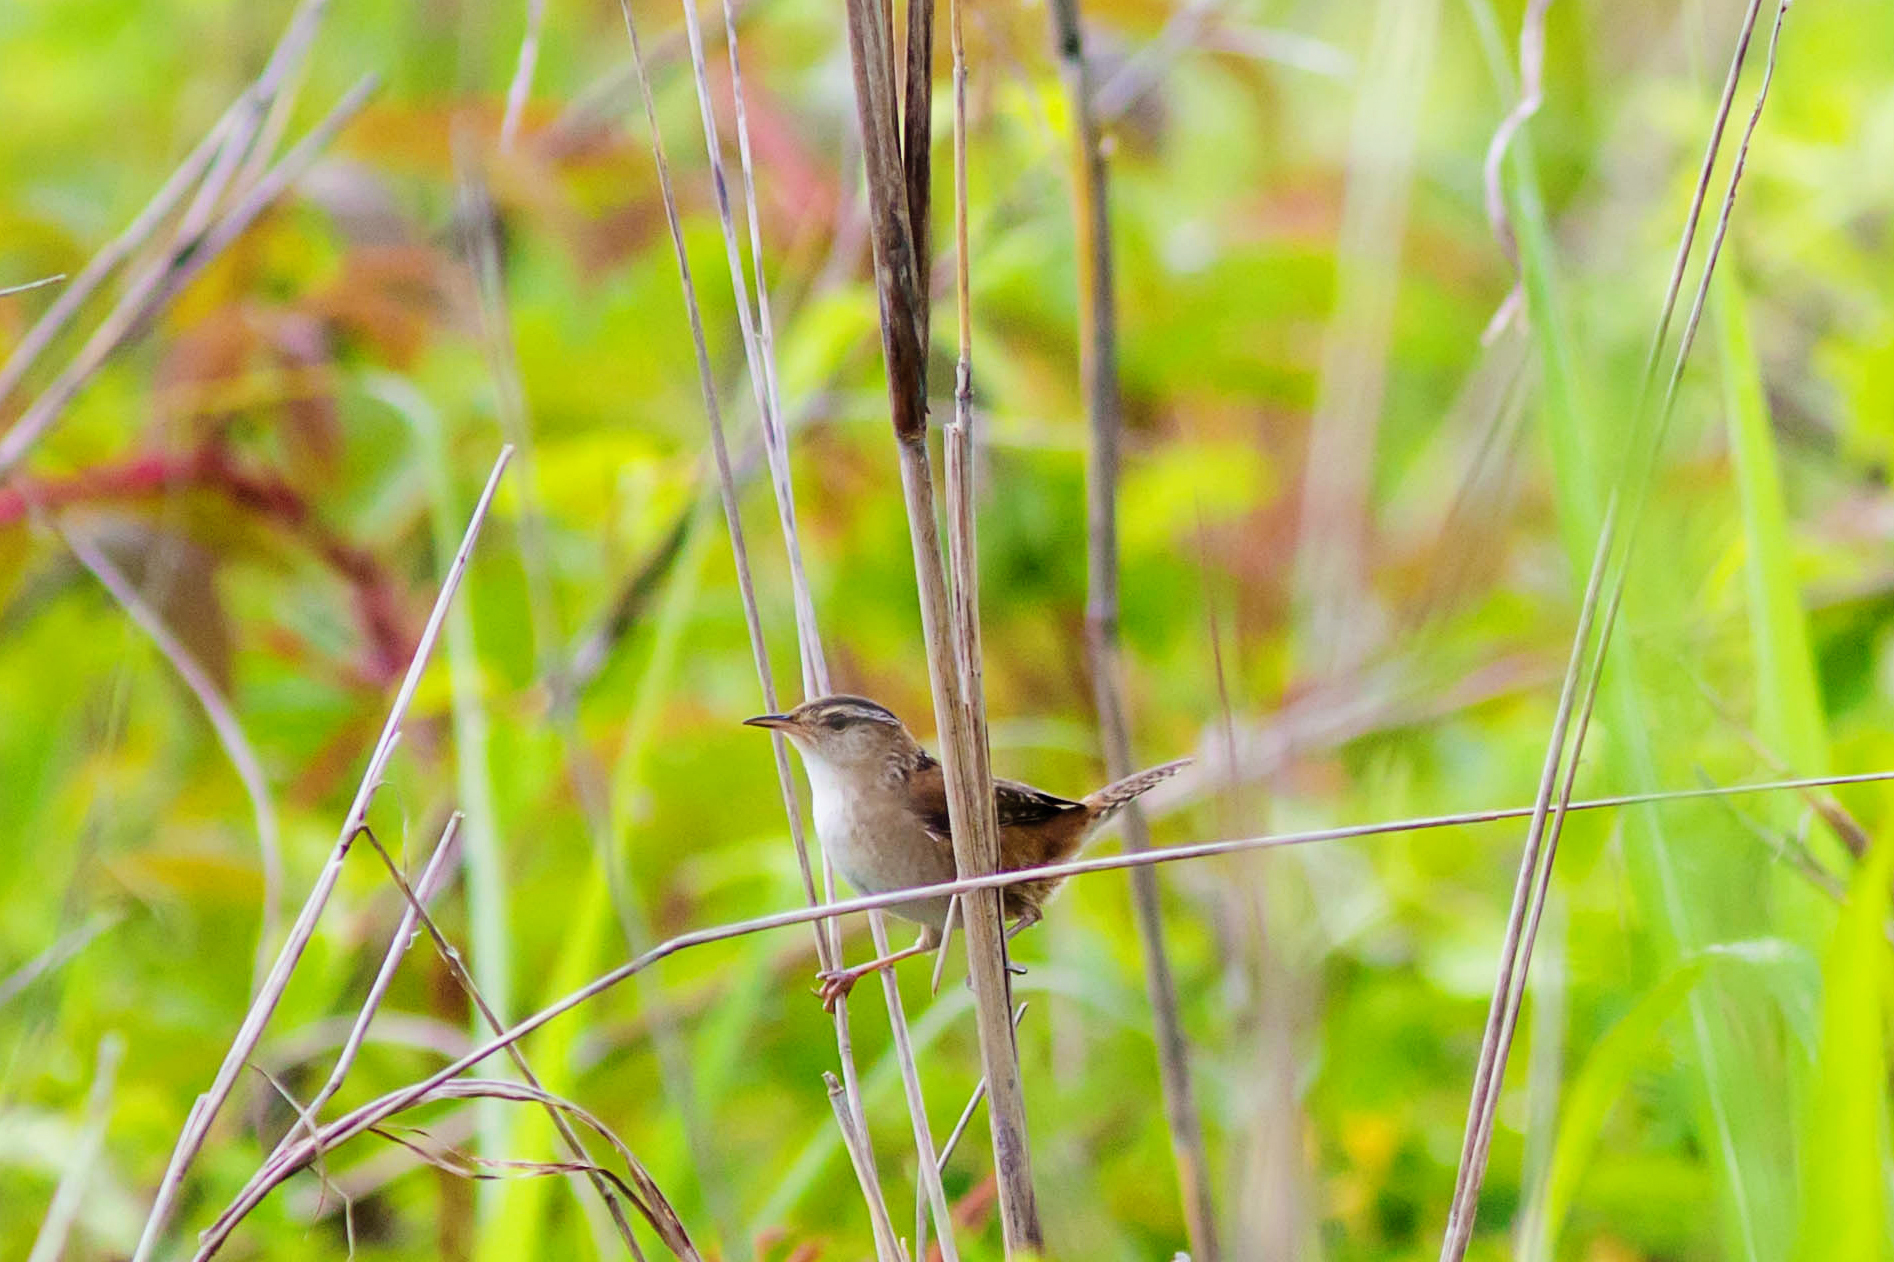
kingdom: Animalia
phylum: Chordata
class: Aves
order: Passeriformes
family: Troglodytidae
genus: Cistothorus
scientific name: Cistothorus palustris
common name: Marsh wren
